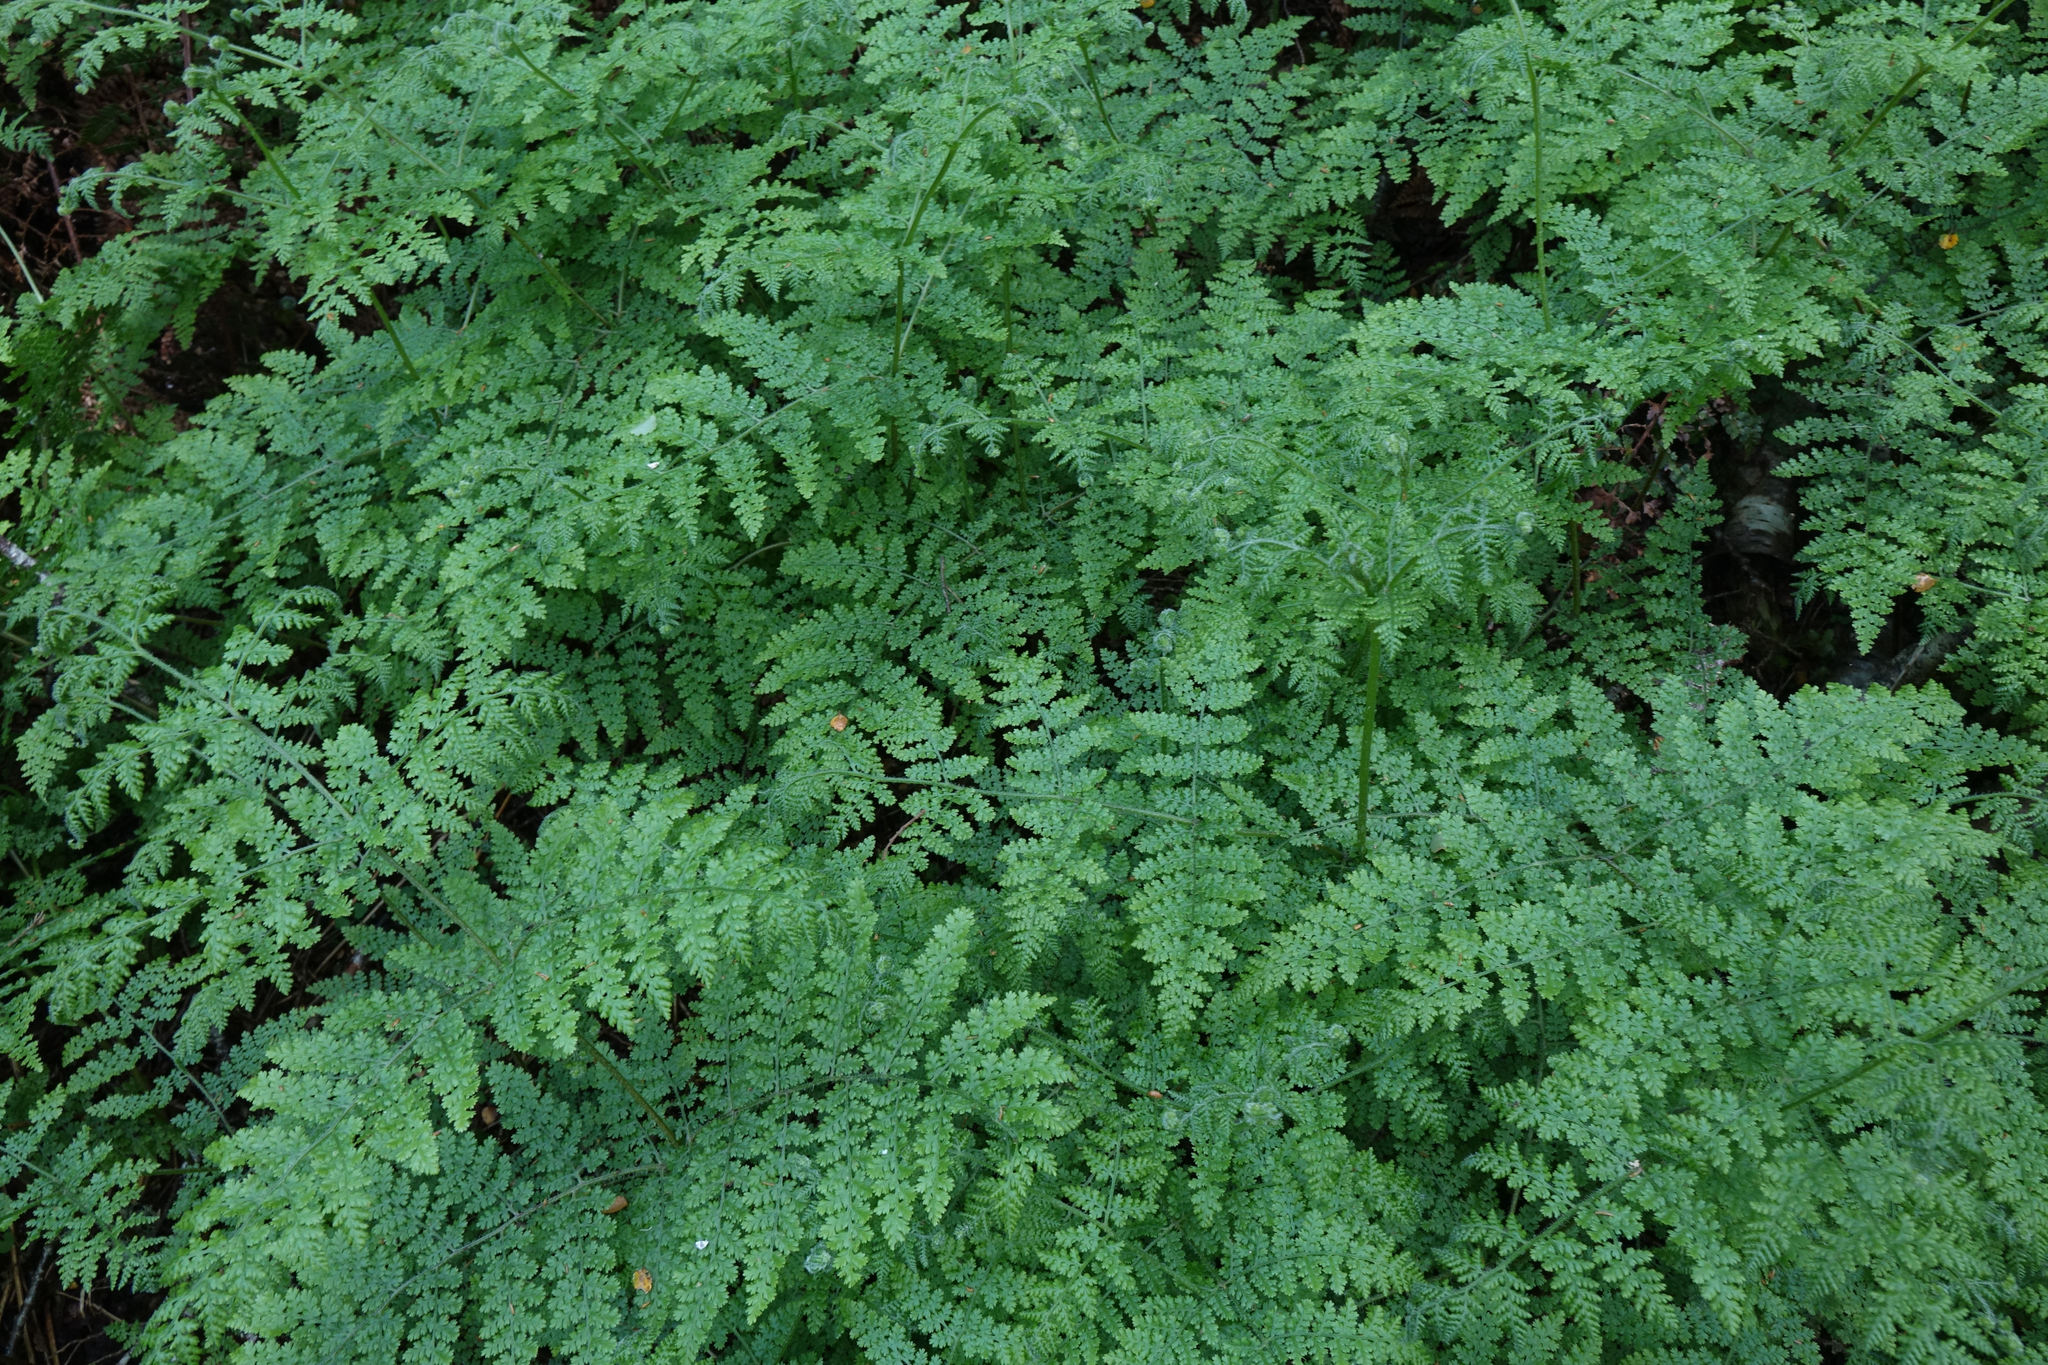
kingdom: Plantae
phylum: Tracheophyta
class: Polypodiopsida
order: Polypodiales
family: Dennstaedtiaceae
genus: Hypolepis
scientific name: Hypolepis millefolium
